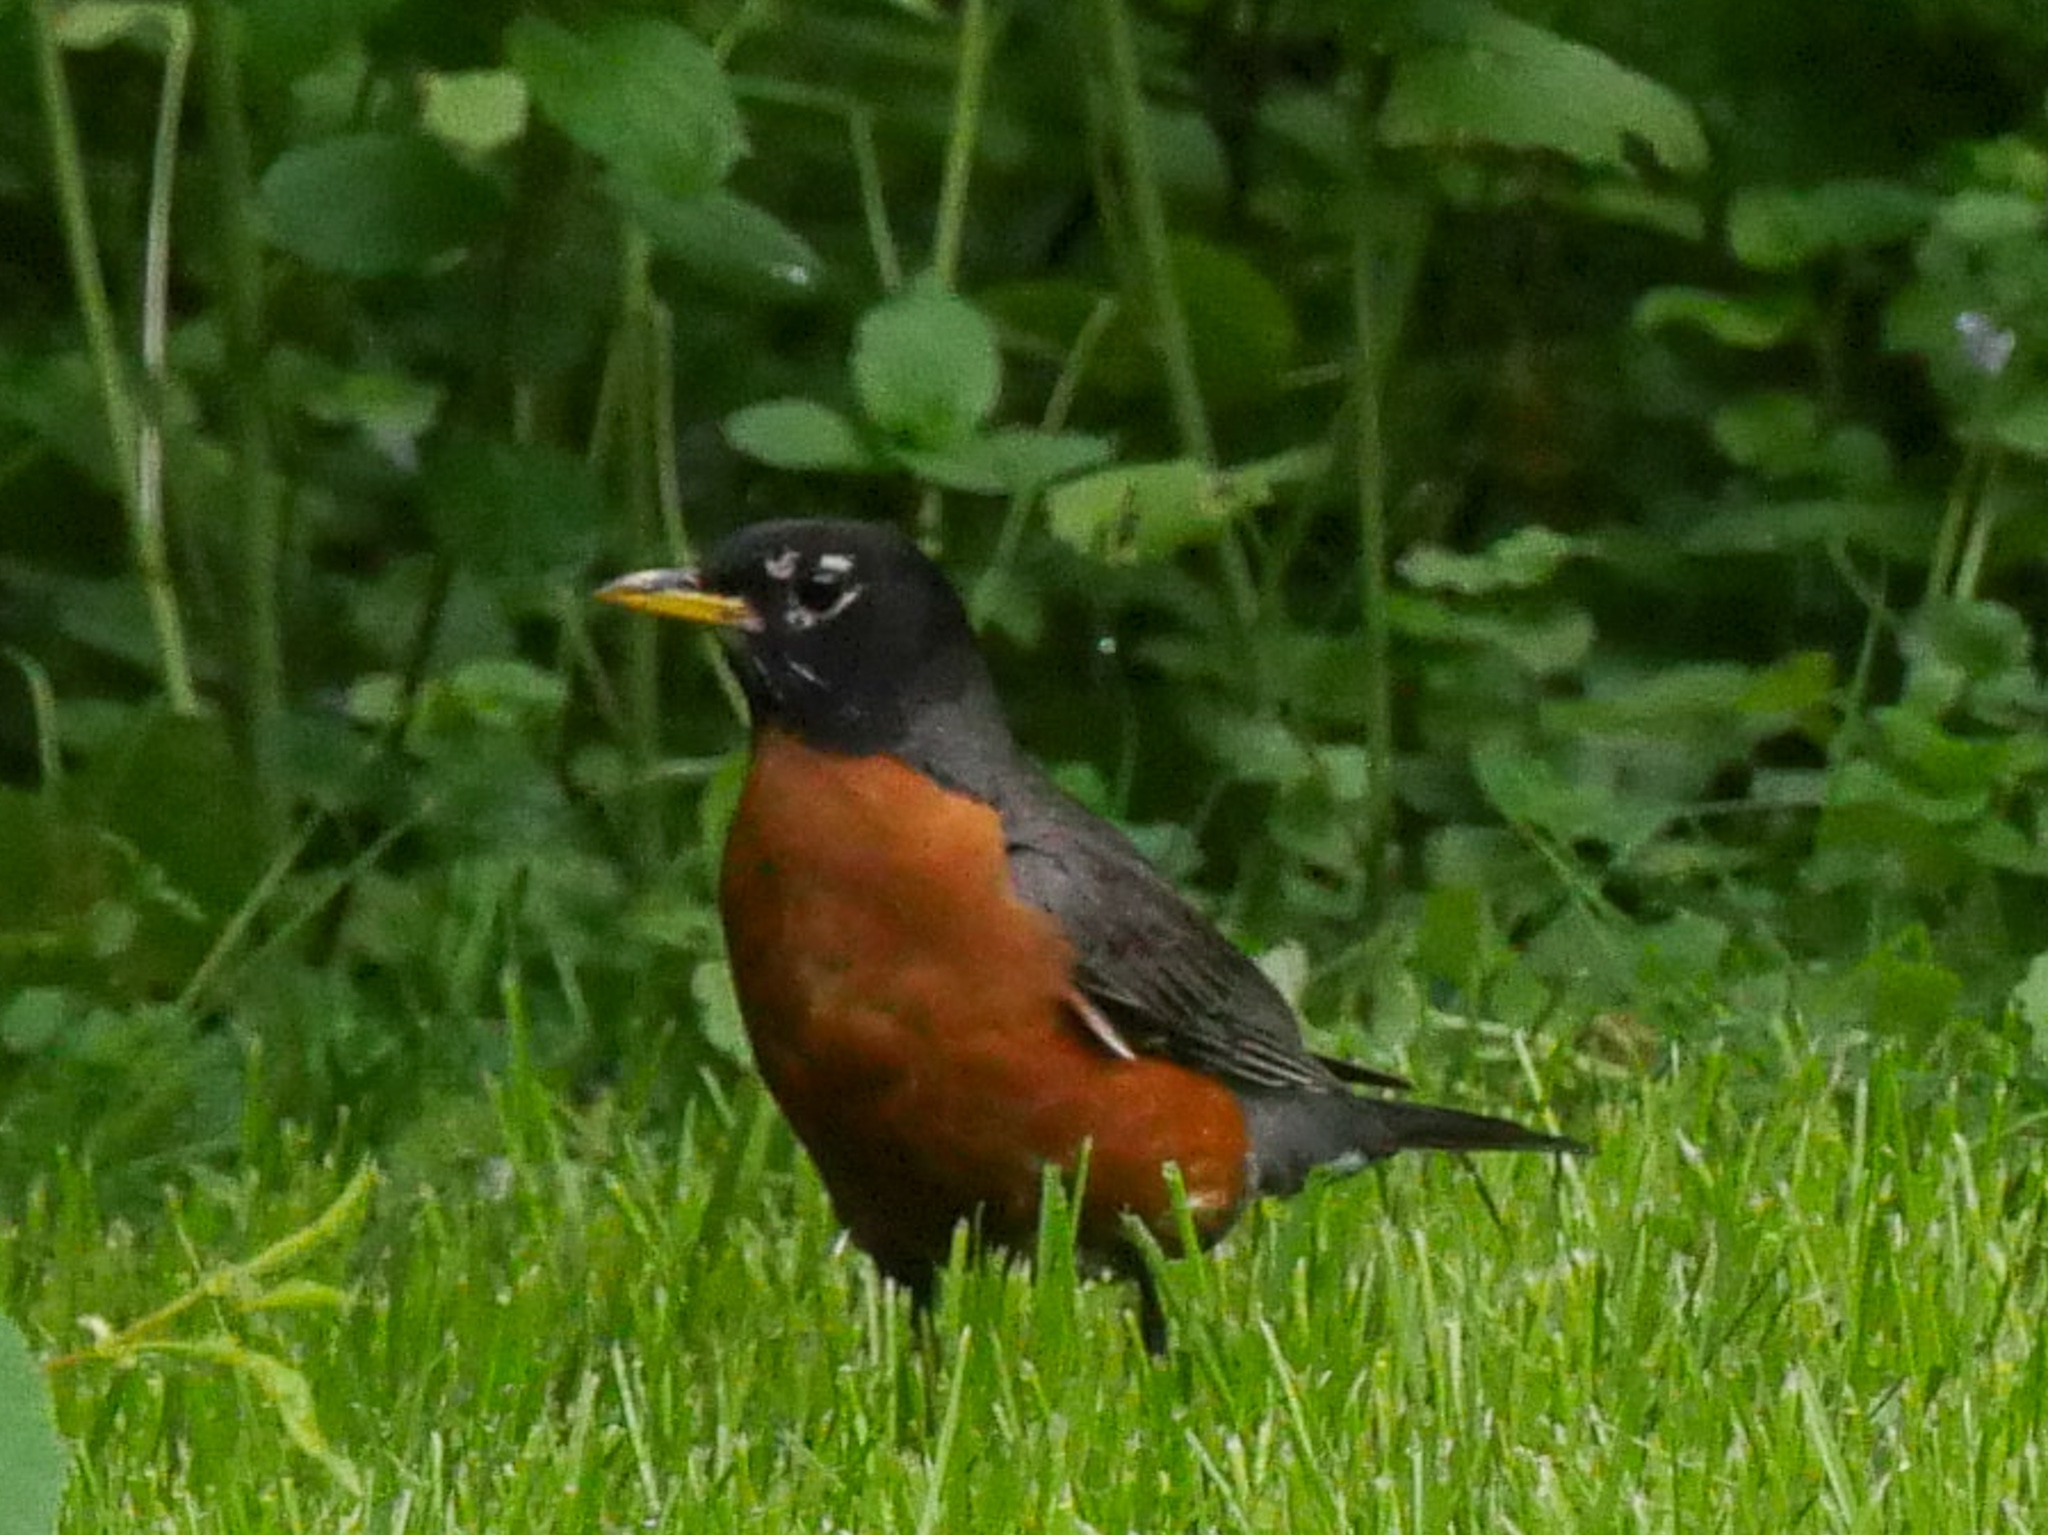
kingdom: Animalia
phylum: Chordata
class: Aves
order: Passeriformes
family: Turdidae
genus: Turdus
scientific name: Turdus migratorius
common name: American robin
